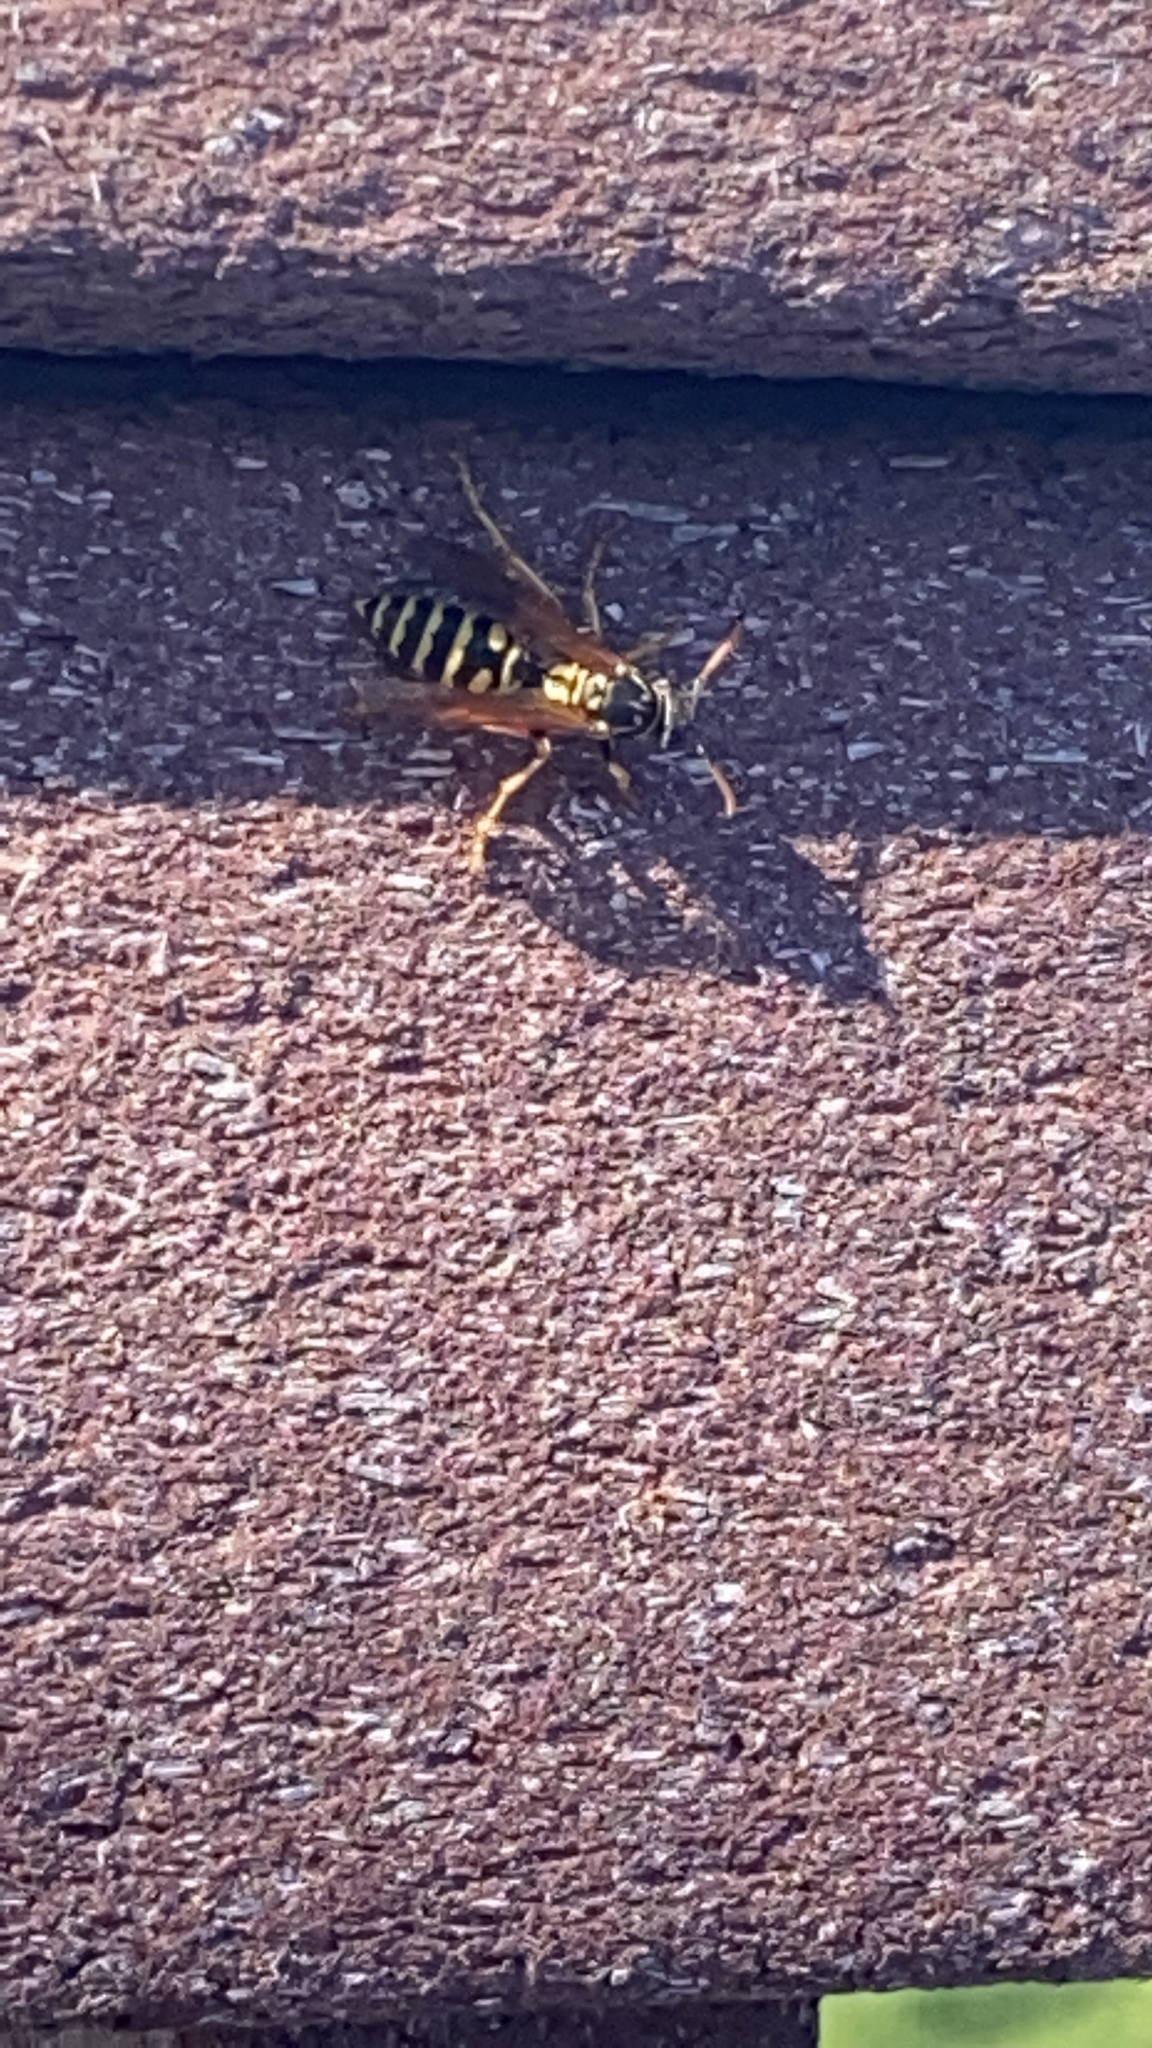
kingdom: Animalia
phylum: Arthropoda
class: Insecta
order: Hymenoptera
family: Eumenidae
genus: Polistes
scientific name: Polistes dominula
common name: Paper wasp
